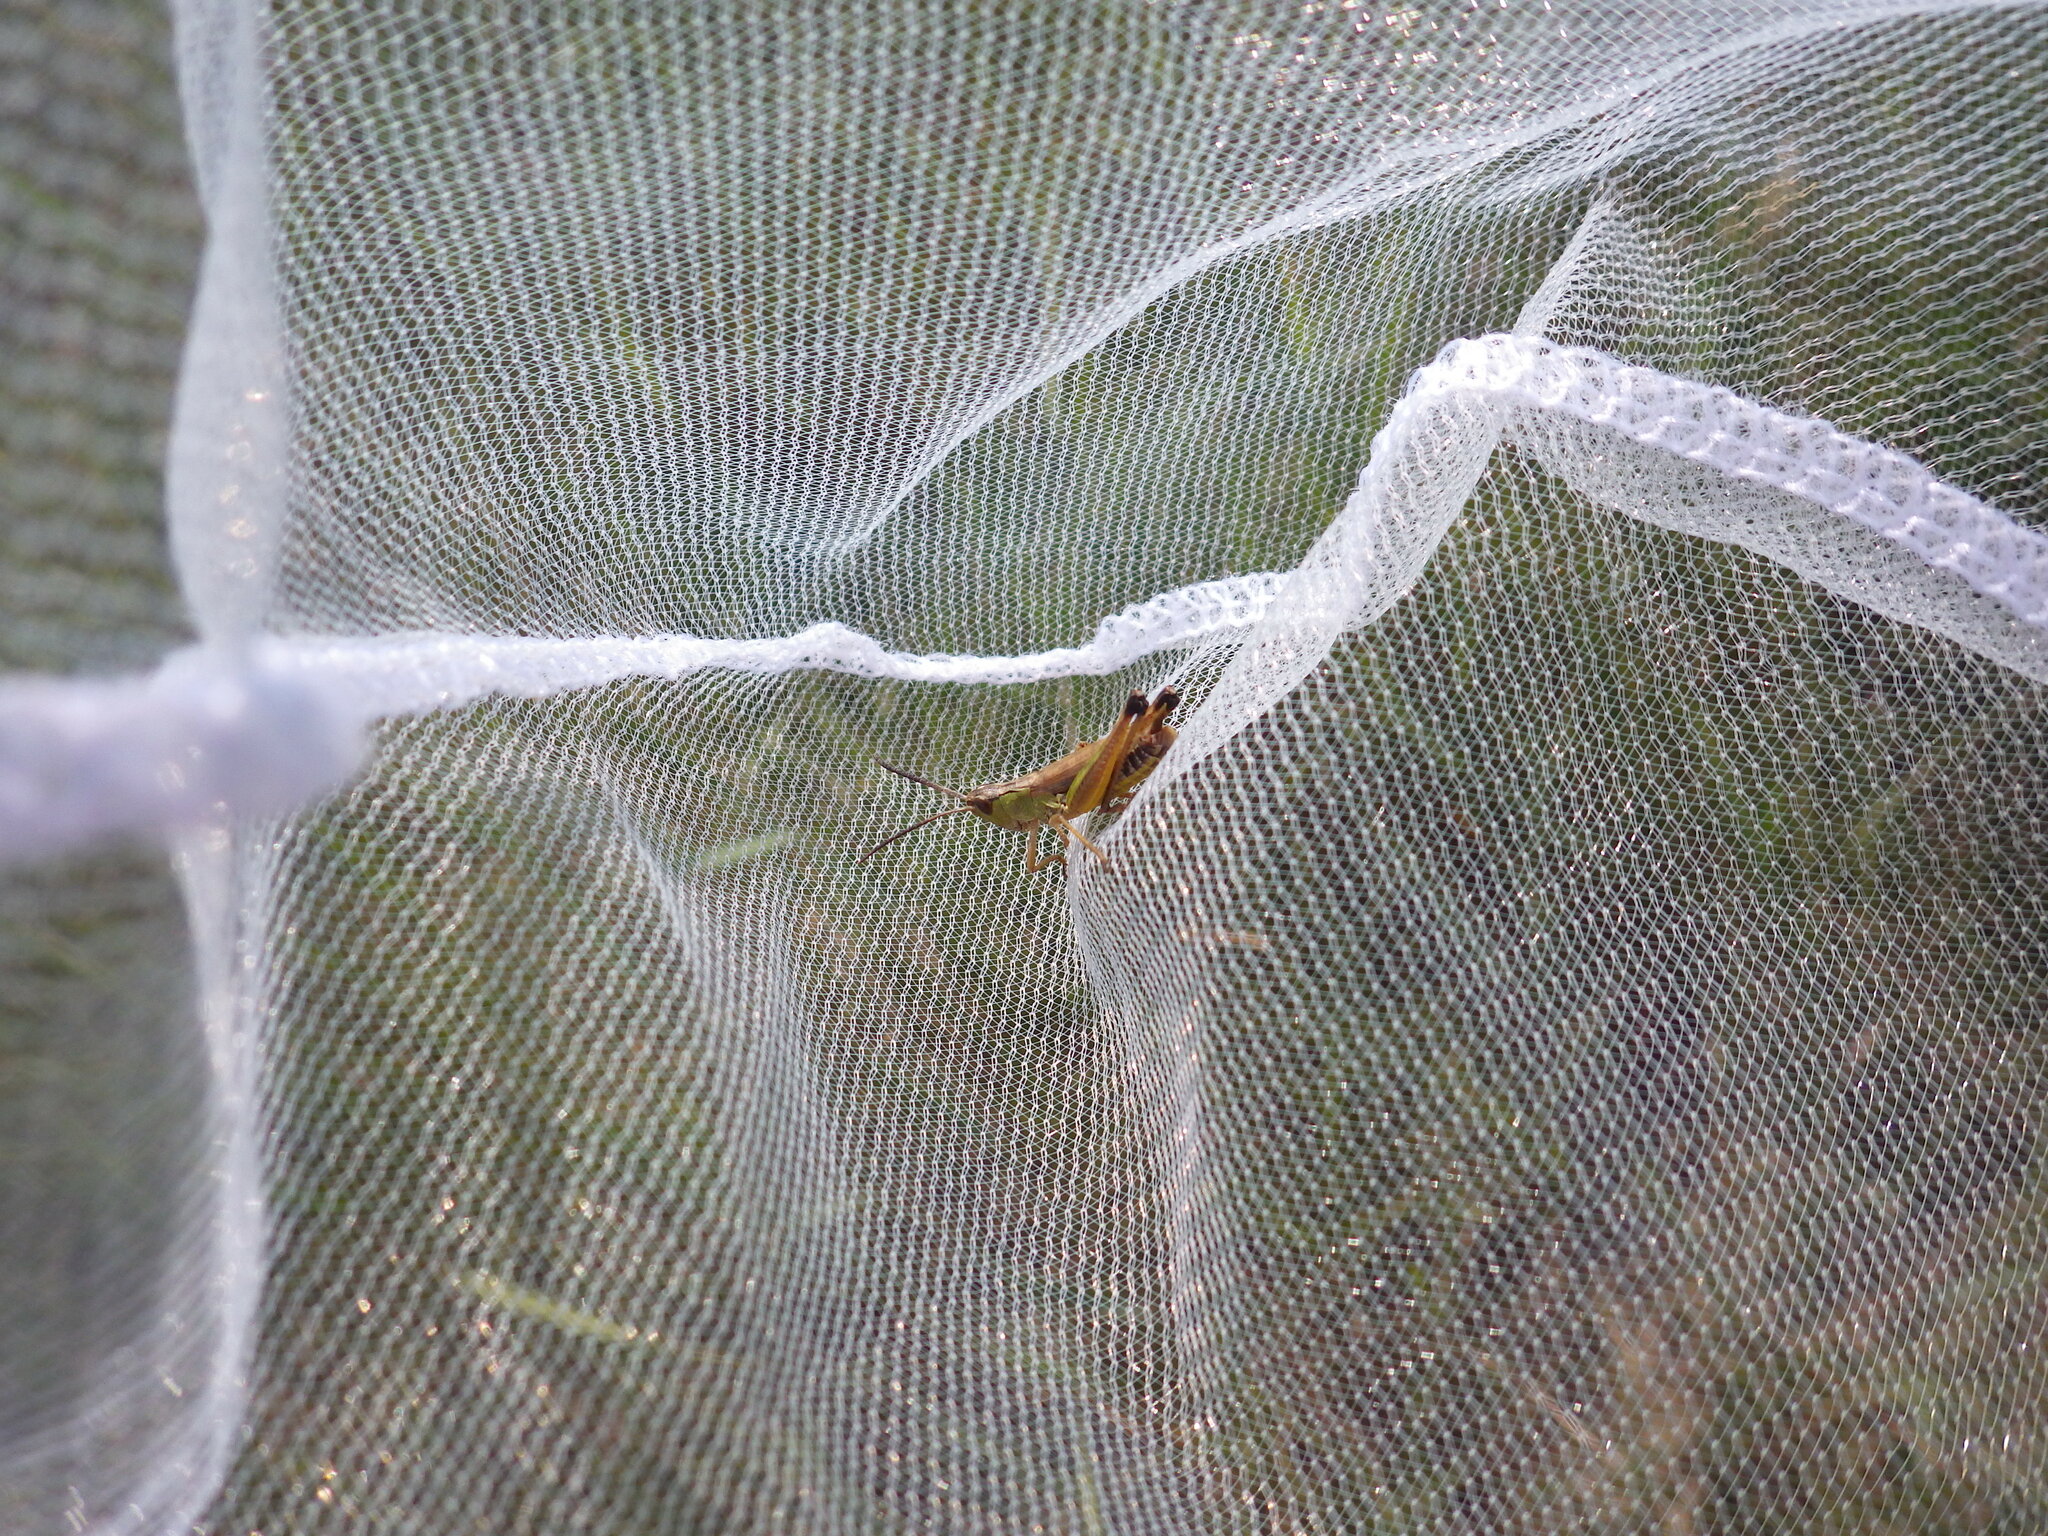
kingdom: Animalia
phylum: Arthropoda
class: Insecta
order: Orthoptera
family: Acrididae
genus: Pseudochorthippus
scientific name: Pseudochorthippus curtipennis
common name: Marsh meadow grasshopper
